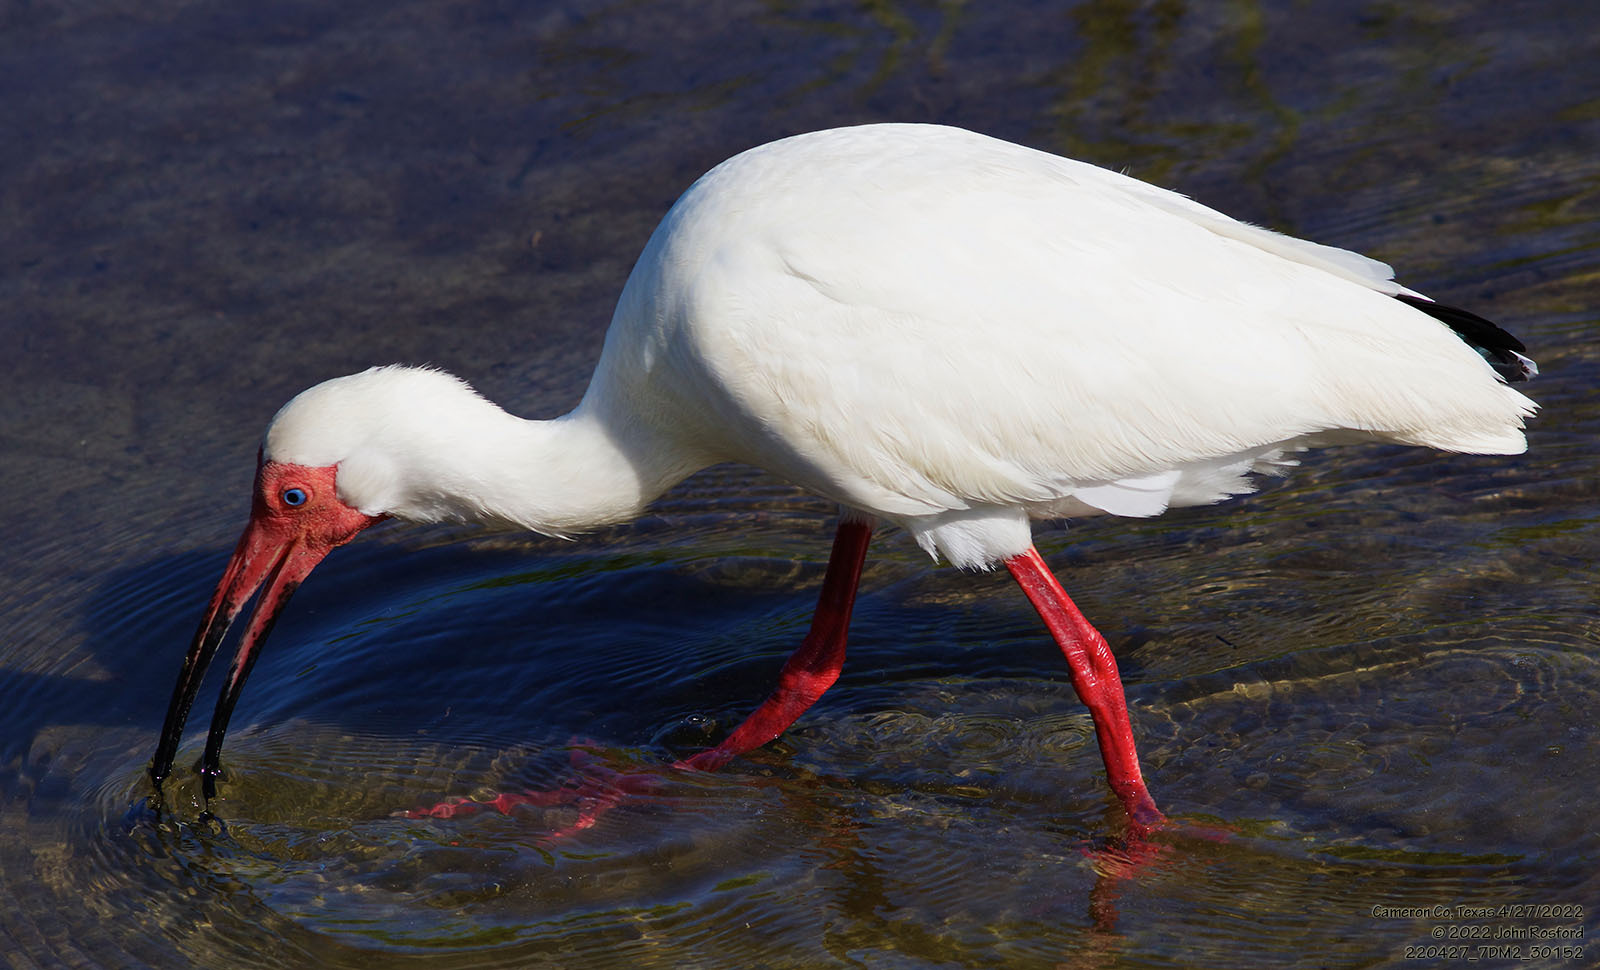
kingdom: Animalia
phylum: Chordata
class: Aves
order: Pelecaniformes
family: Threskiornithidae
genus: Eudocimus
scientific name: Eudocimus albus
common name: White ibis
